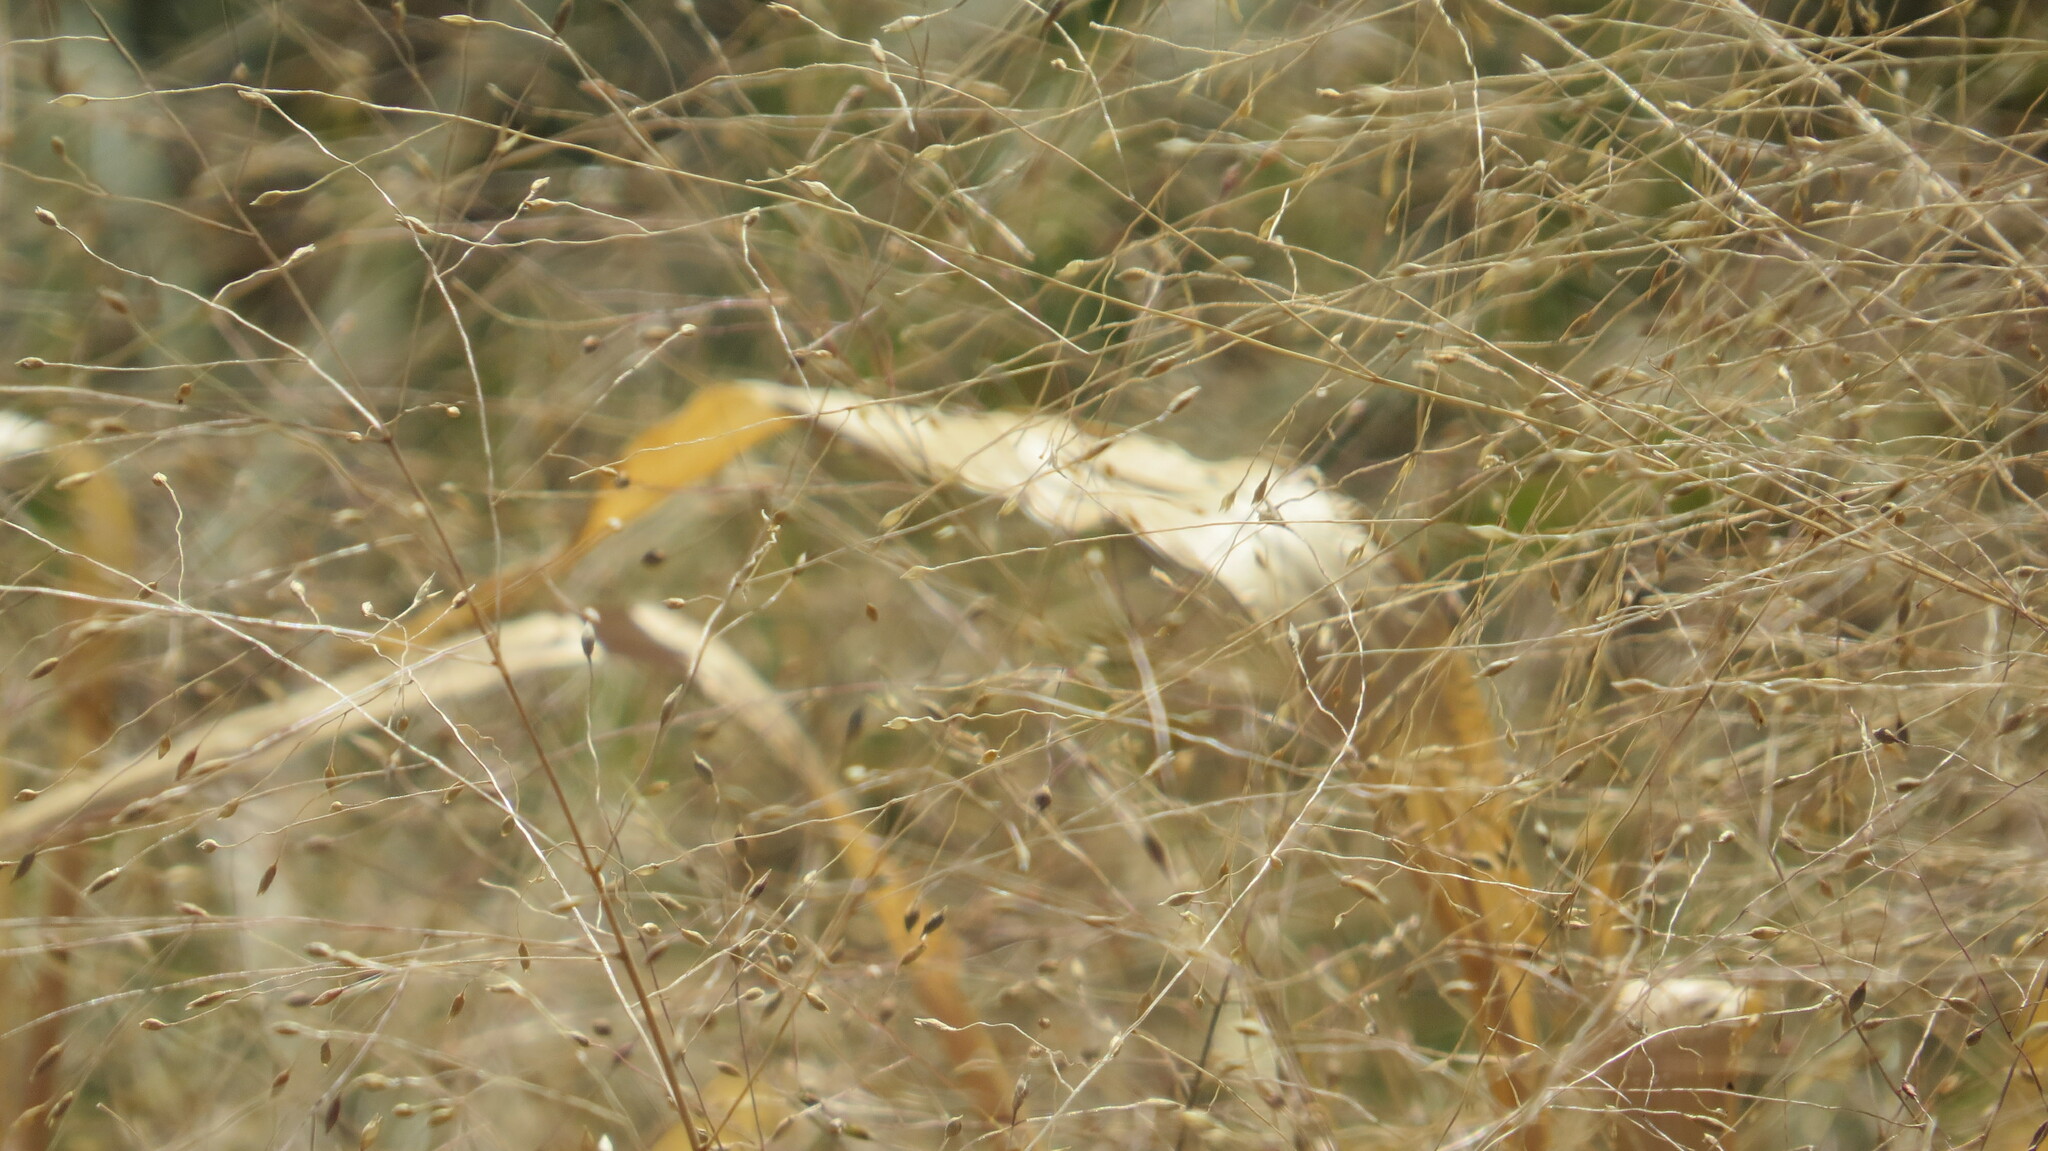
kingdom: Plantae
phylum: Tracheophyta
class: Liliopsida
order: Poales
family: Poaceae
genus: Panicum
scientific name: Panicum capillare
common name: Witch-grass
